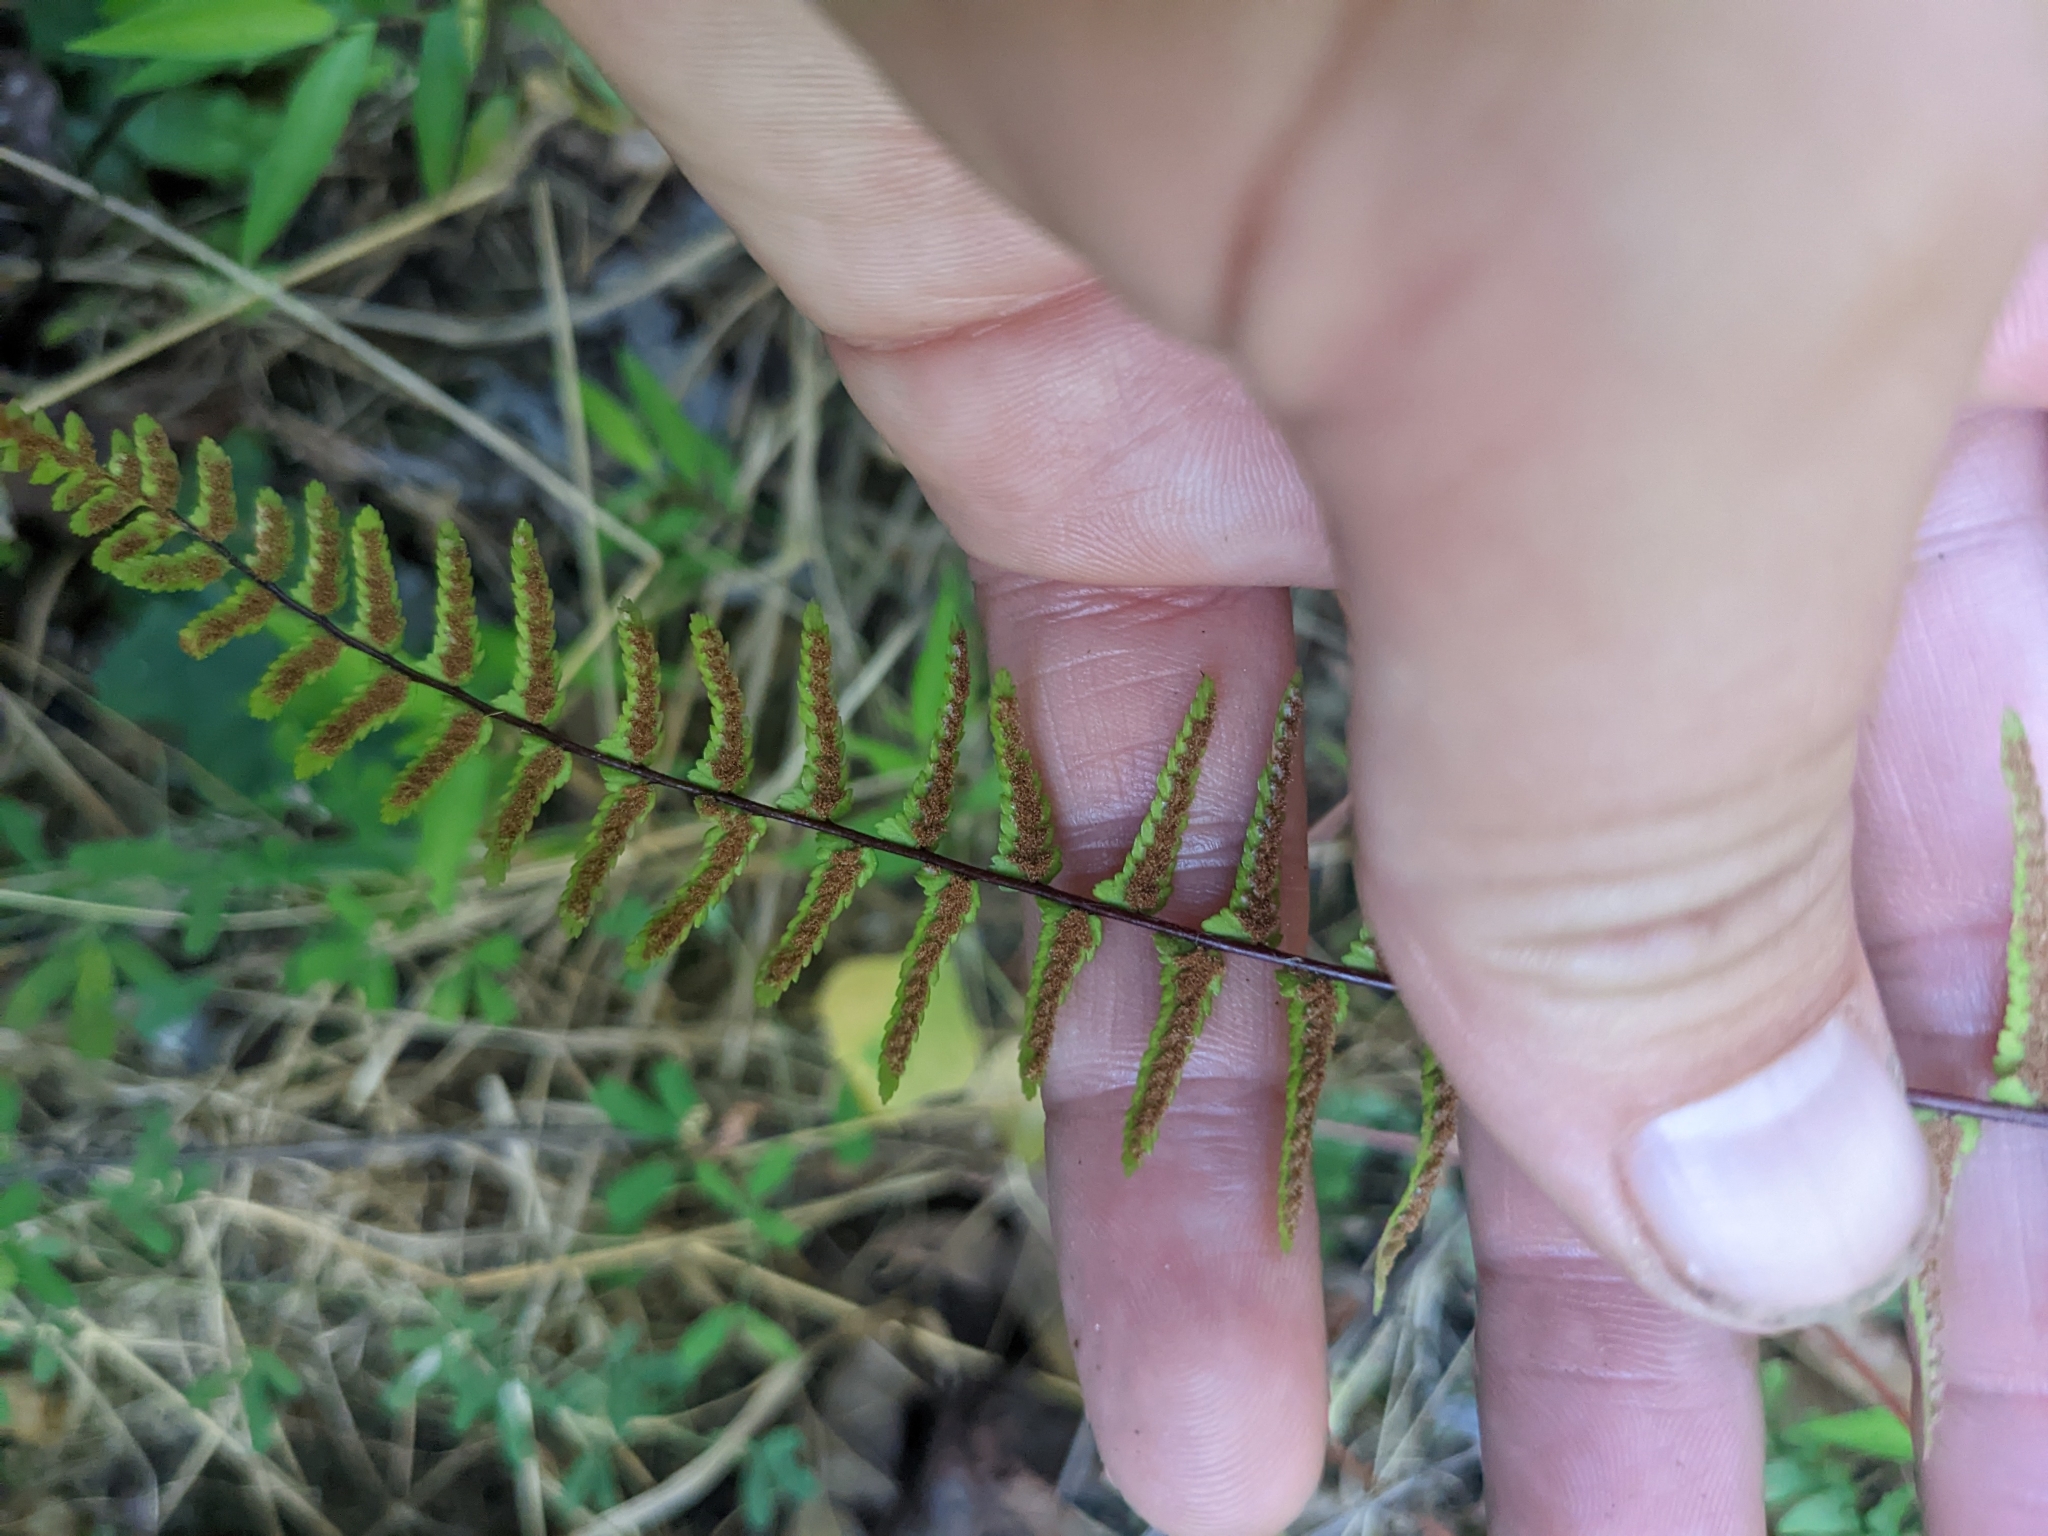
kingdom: Plantae
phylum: Tracheophyta
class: Polypodiopsida
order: Polypodiales
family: Aspleniaceae
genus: Asplenium
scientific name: Asplenium platyneuron
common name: Ebony spleenwort
